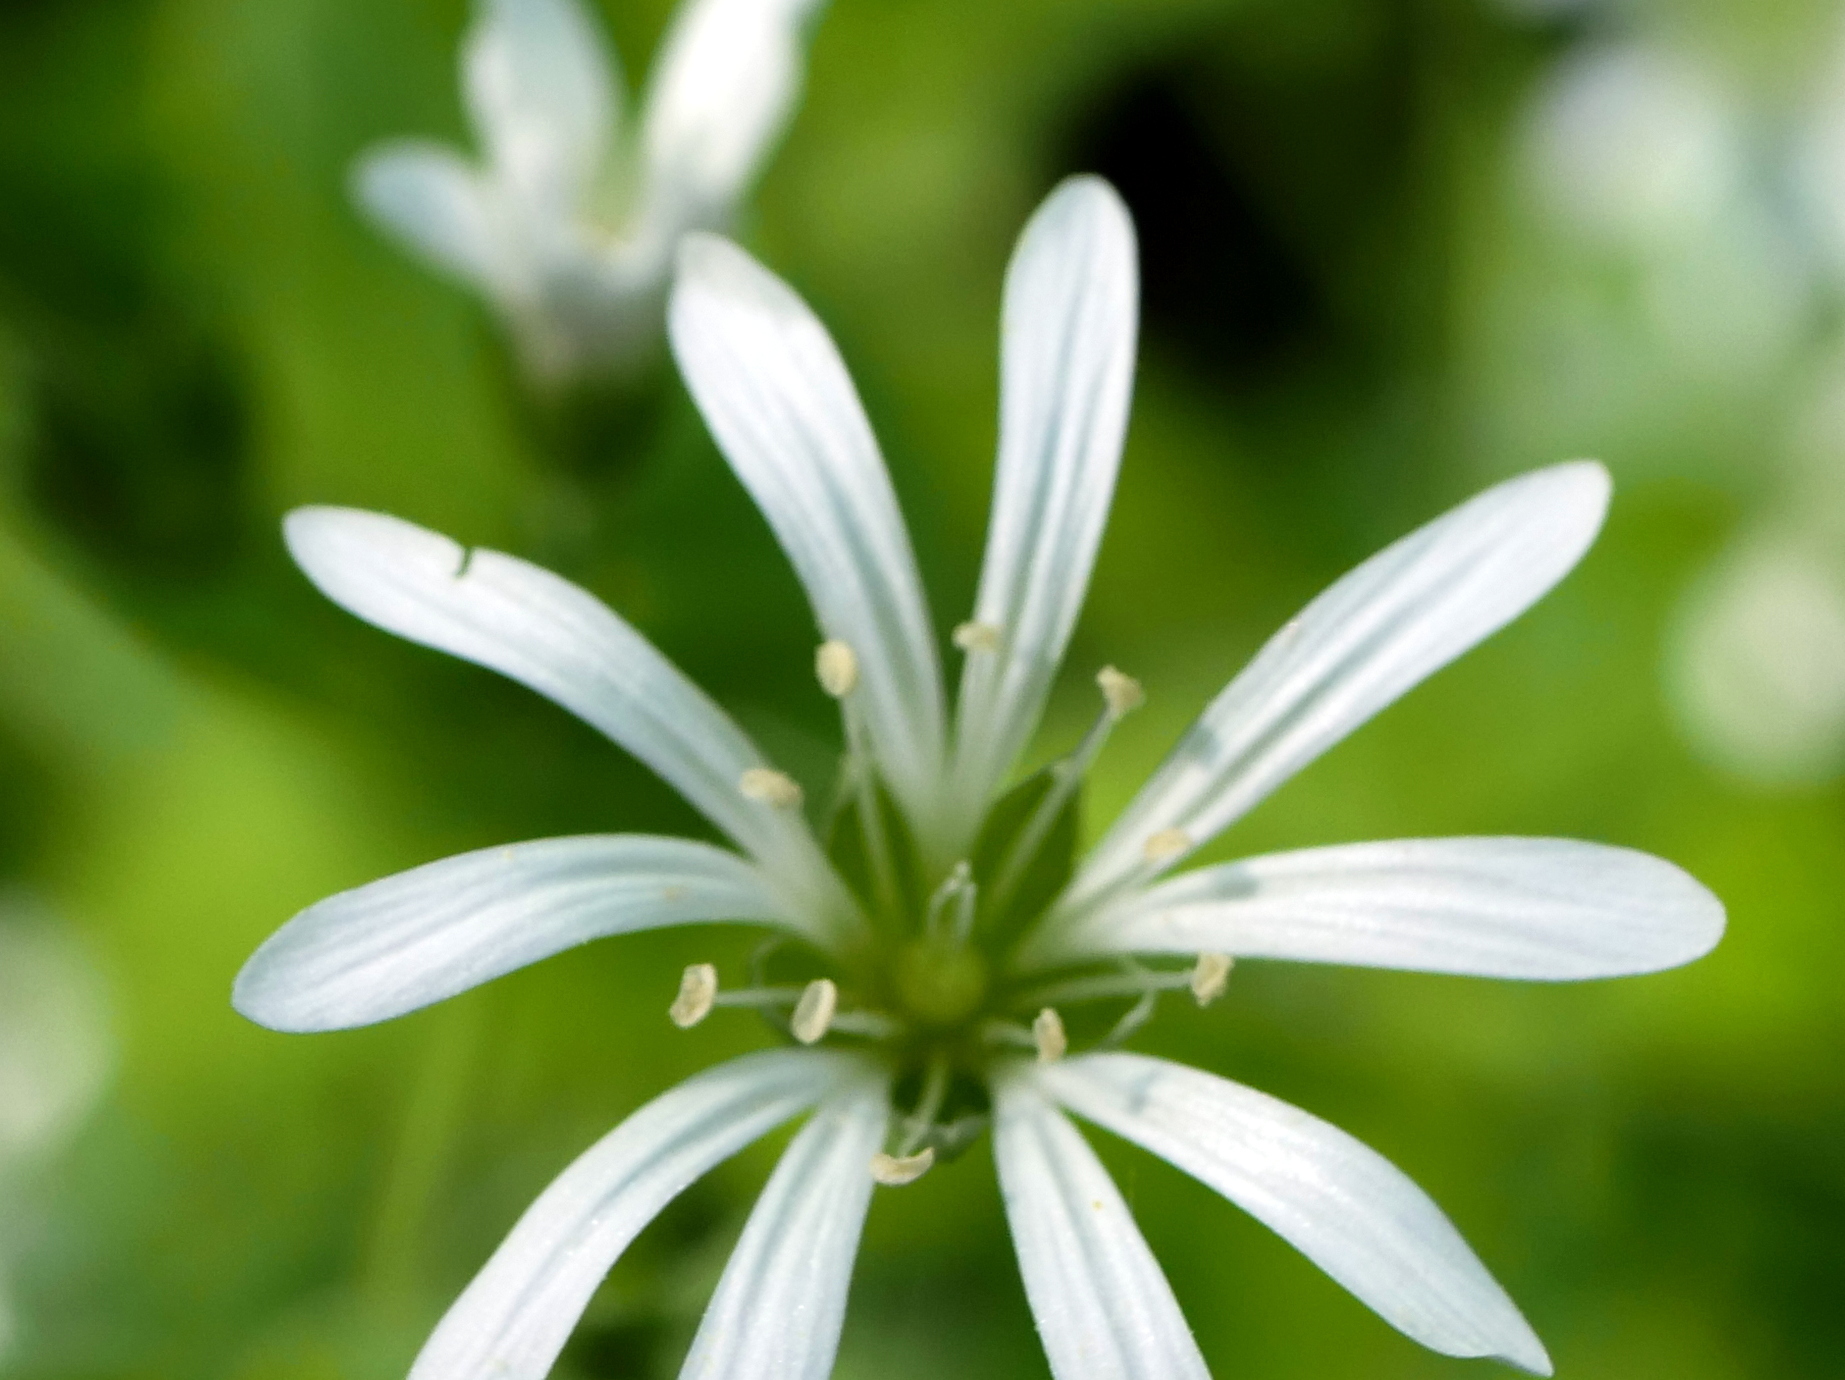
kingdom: Plantae
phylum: Tracheophyta
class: Magnoliopsida
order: Caryophyllales
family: Caryophyllaceae
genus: Stellaria
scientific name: Stellaria nemorum
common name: Wood stitchwort
